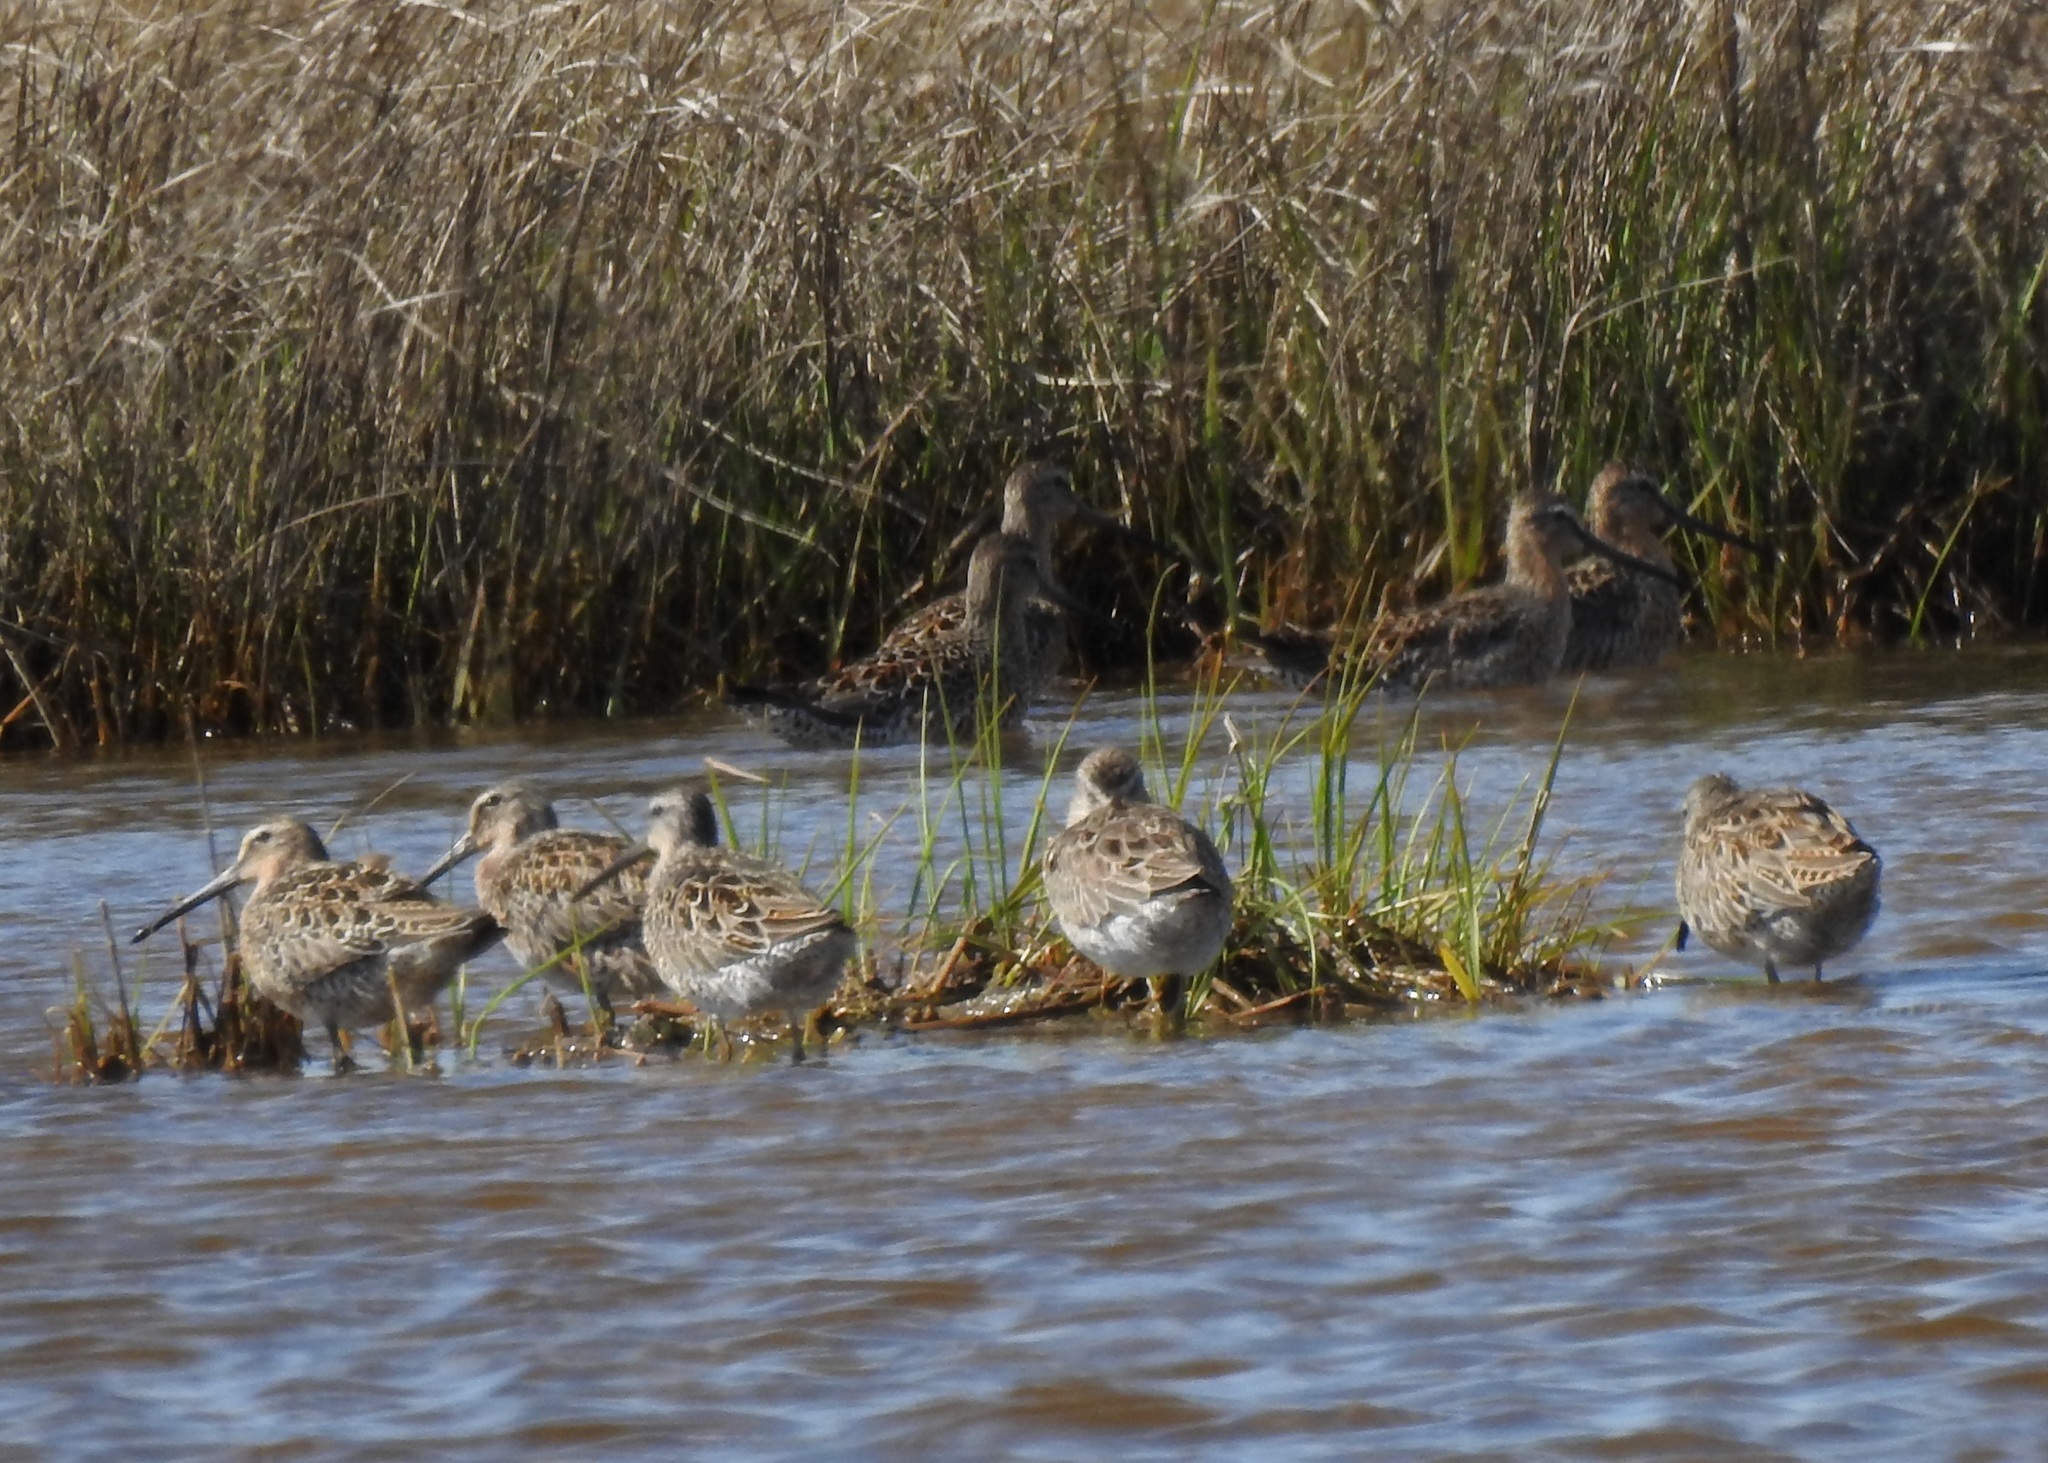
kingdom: Animalia
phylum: Chordata
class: Aves
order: Charadriiformes
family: Scolopacidae
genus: Limnodromus
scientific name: Limnodromus
